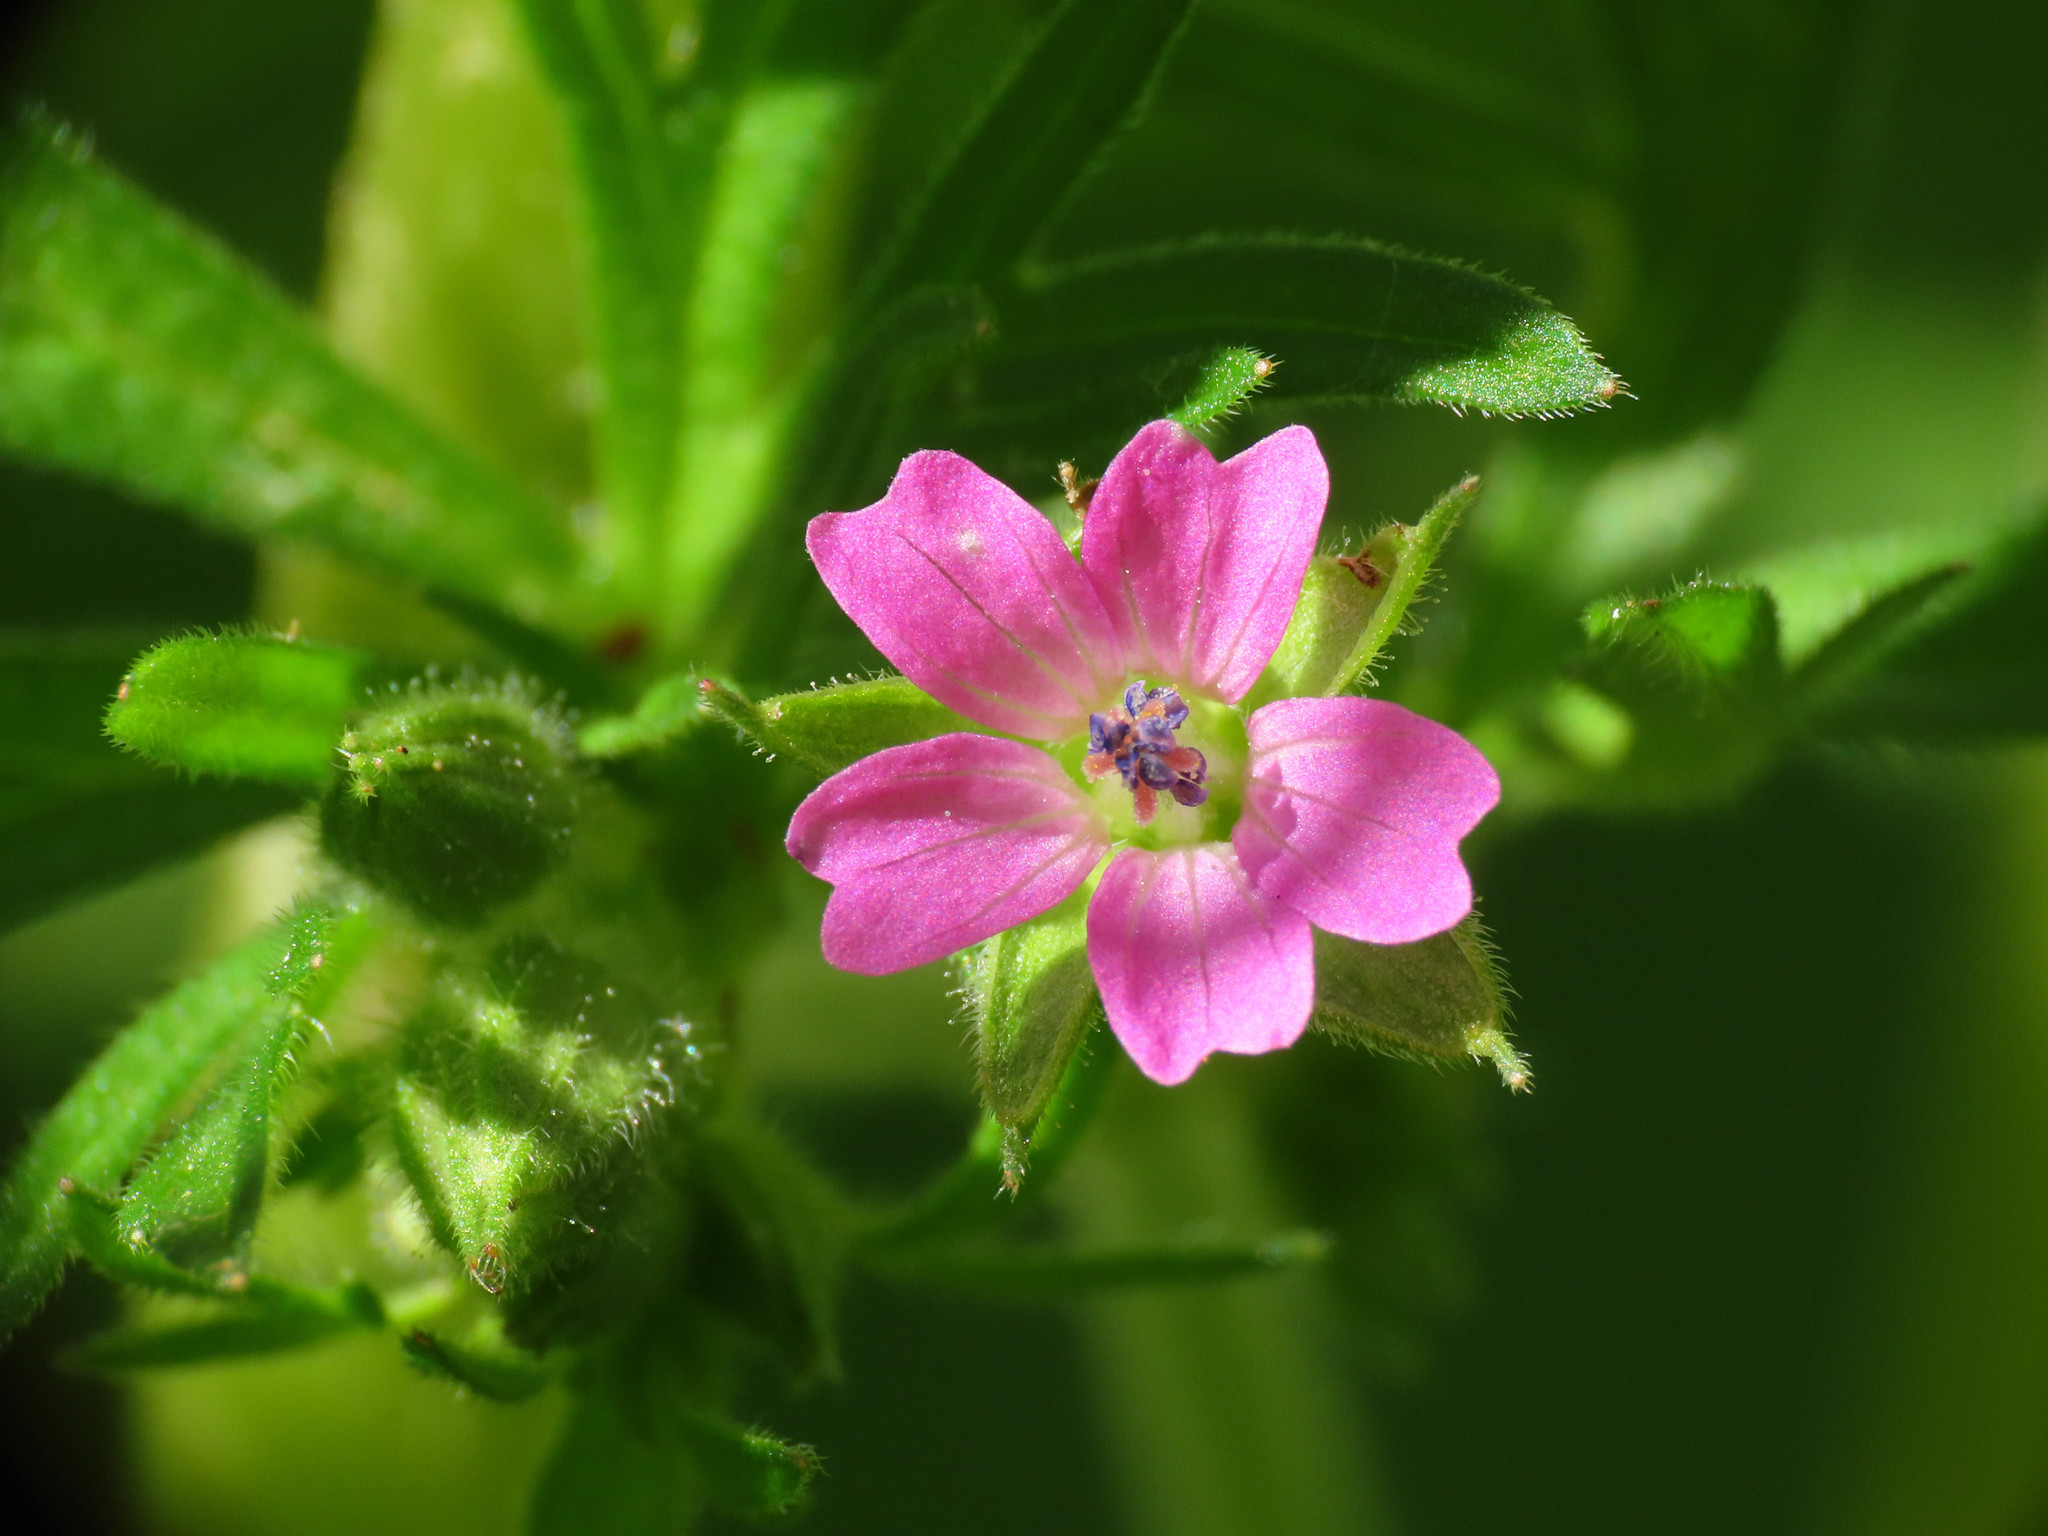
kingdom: Plantae
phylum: Tracheophyta
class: Magnoliopsida
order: Geraniales
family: Geraniaceae
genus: Geranium
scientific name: Geranium dissectum
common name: Cut-leaved crane's-bill
